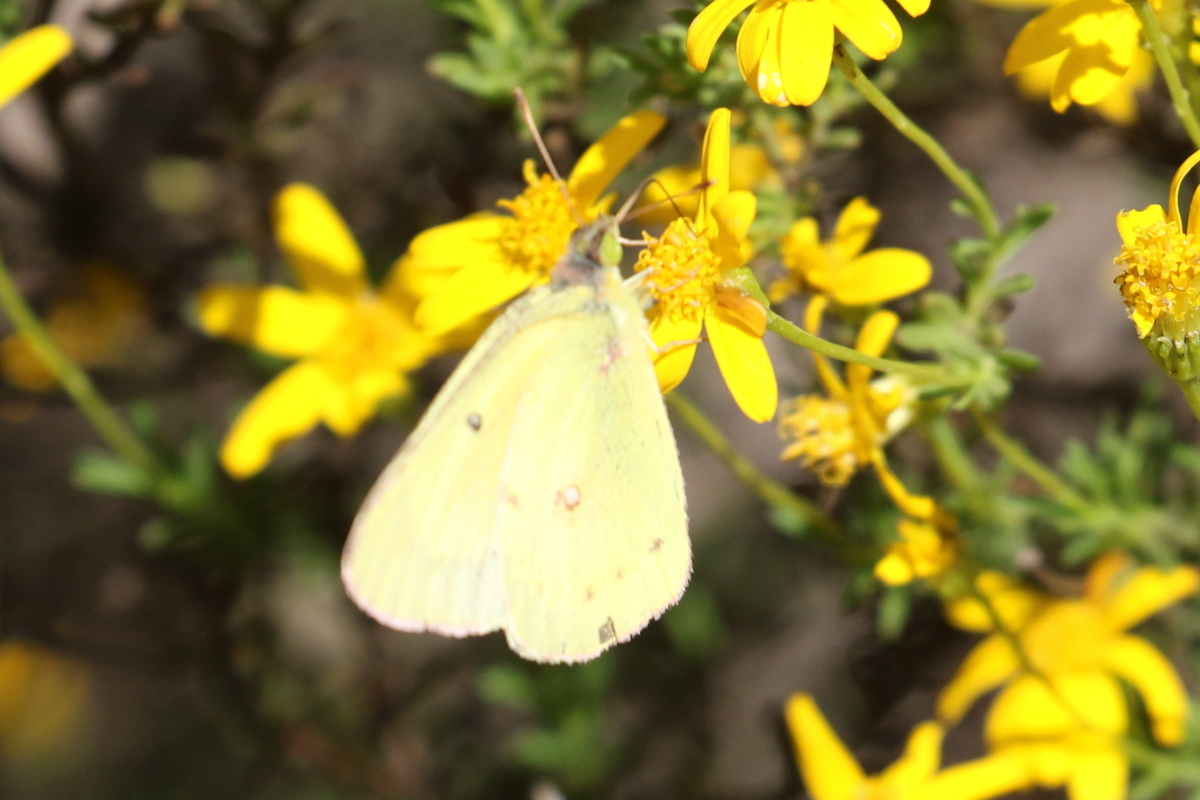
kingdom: Animalia
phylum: Arthropoda
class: Insecta
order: Lepidoptera
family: Pieridae
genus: Colias
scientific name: Colias eurytheme
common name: Alfalfa butterfly
